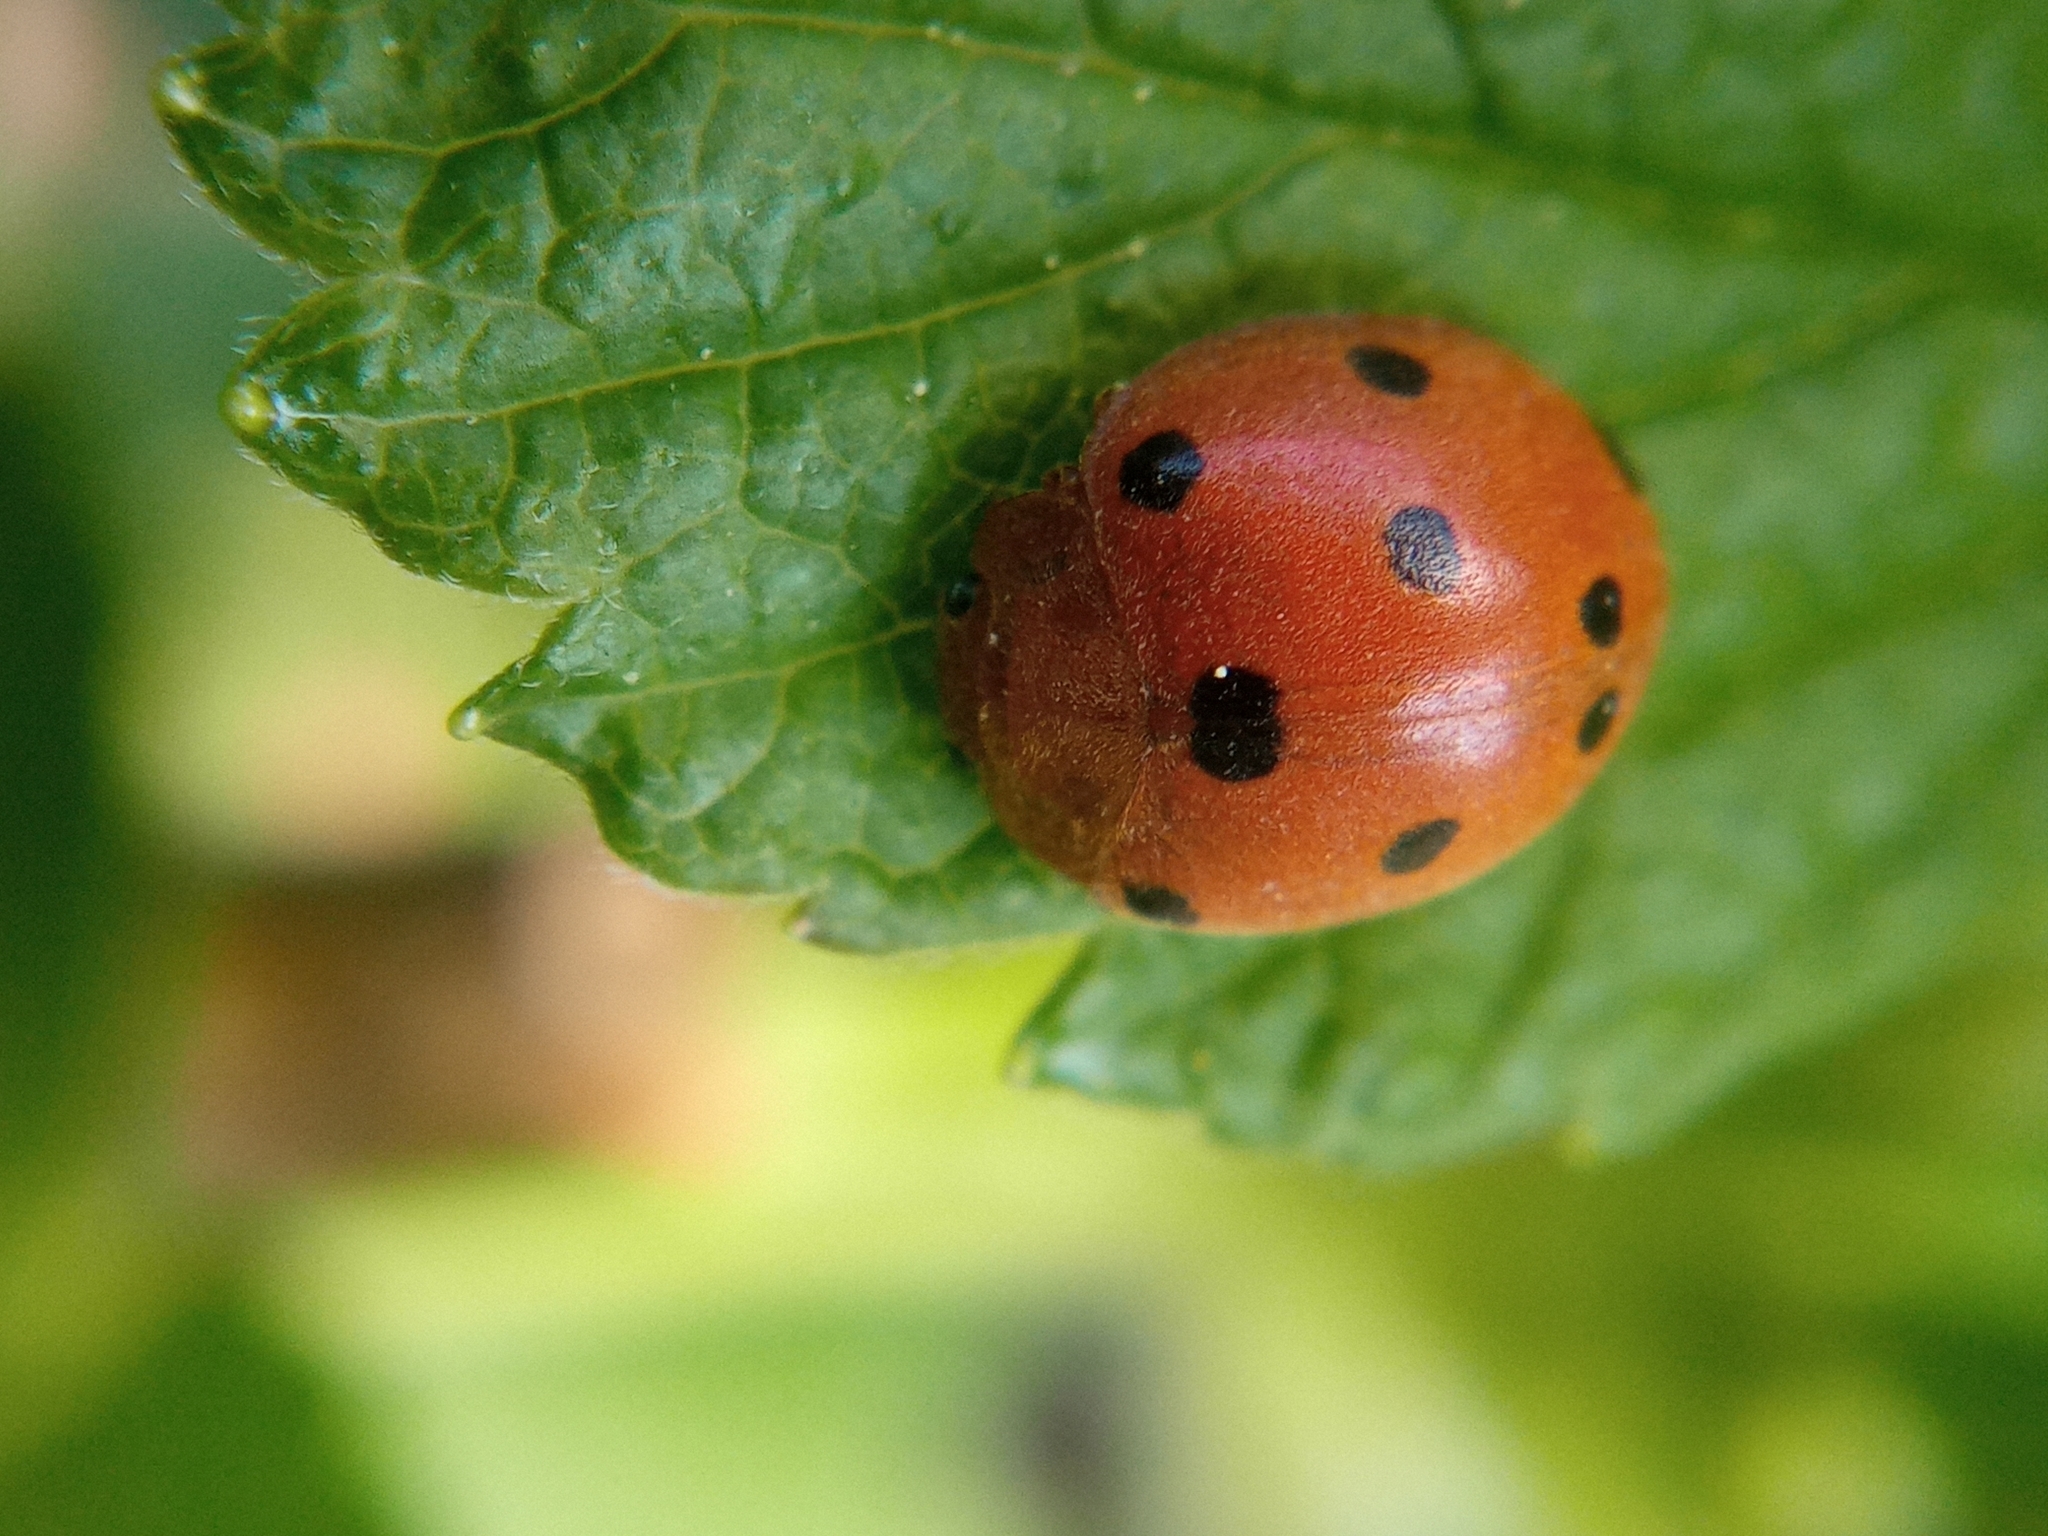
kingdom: Animalia
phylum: Arthropoda
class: Insecta
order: Coleoptera
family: Coccinellidae
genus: Henosepilachna
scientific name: Henosepilachna argus
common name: Bryony ladybird
